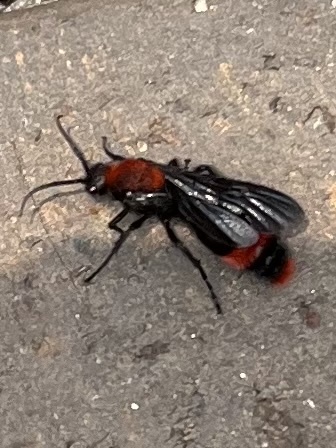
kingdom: Animalia
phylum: Arthropoda
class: Insecta
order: Hymenoptera
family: Mutillidae
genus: Dasymutilla
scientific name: Dasymutilla occidentalis
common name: Common eastern velvet ant
